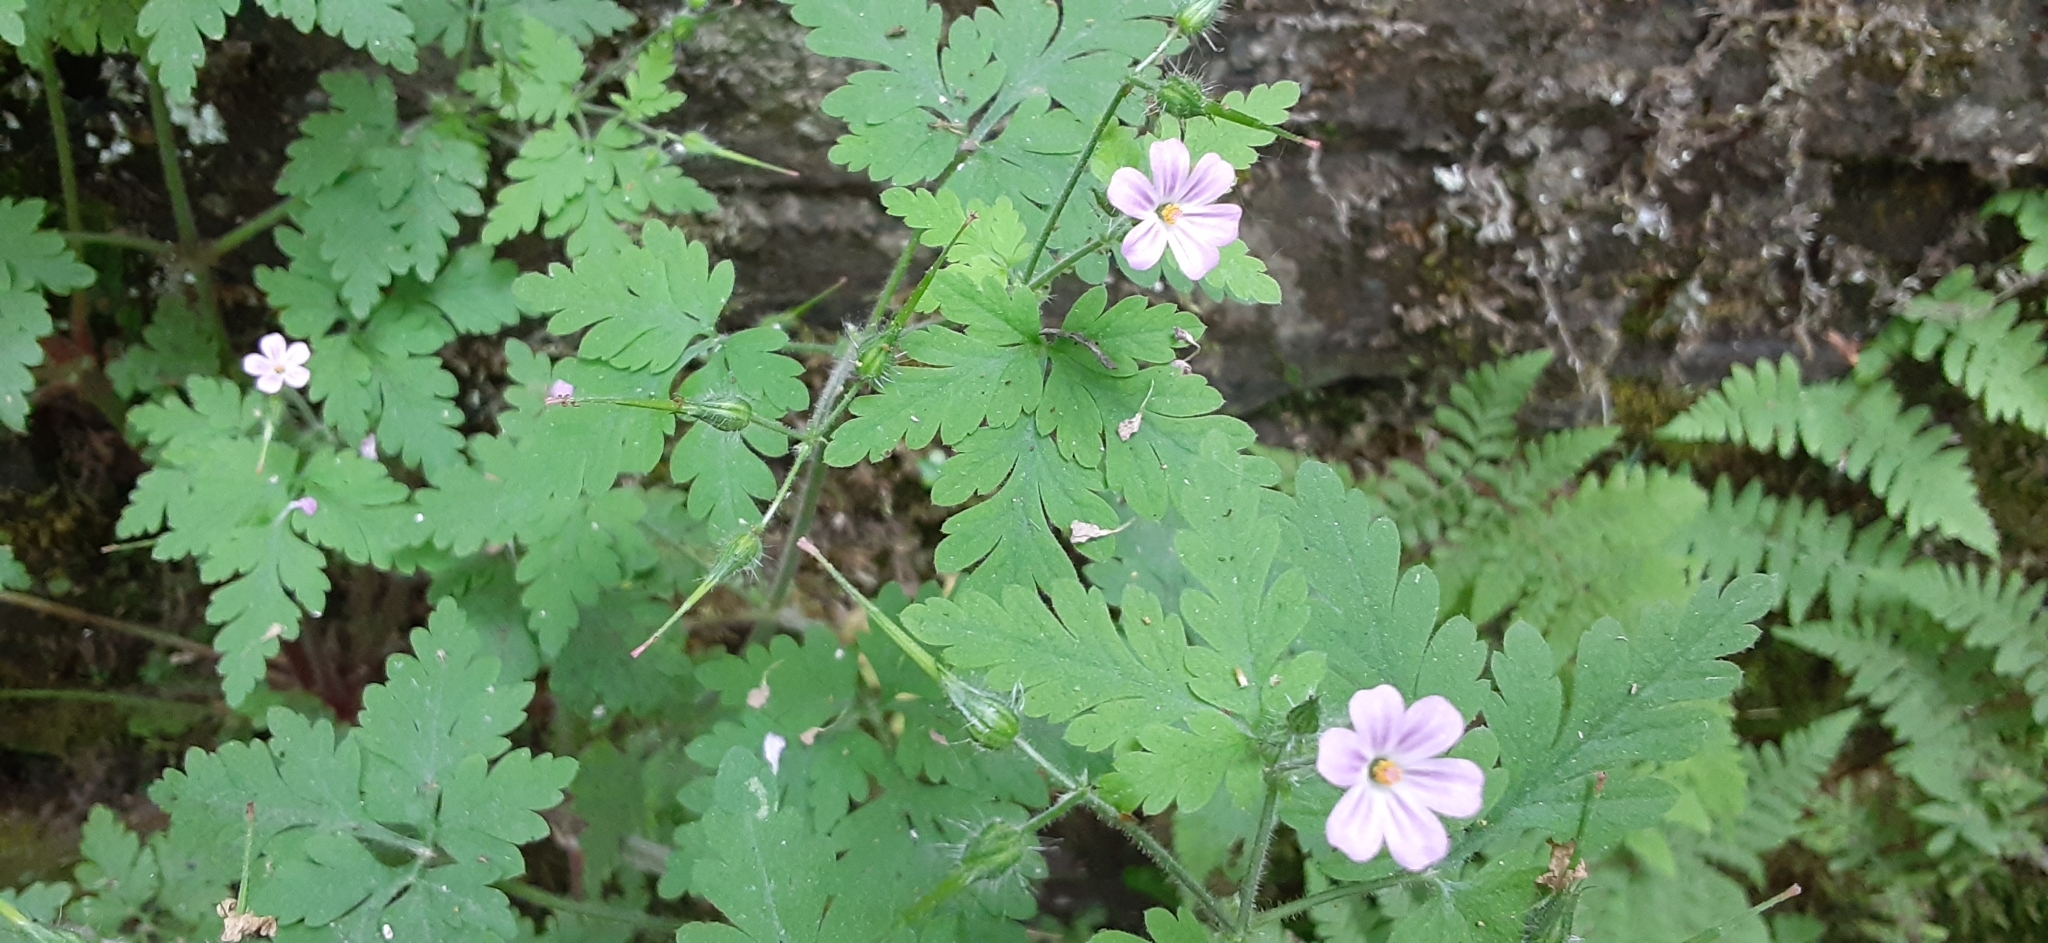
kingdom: Plantae
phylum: Tracheophyta
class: Magnoliopsida
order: Geraniales
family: Geraniaceae
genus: Geranium
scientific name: Geranium robertianum
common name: Herb-robert
